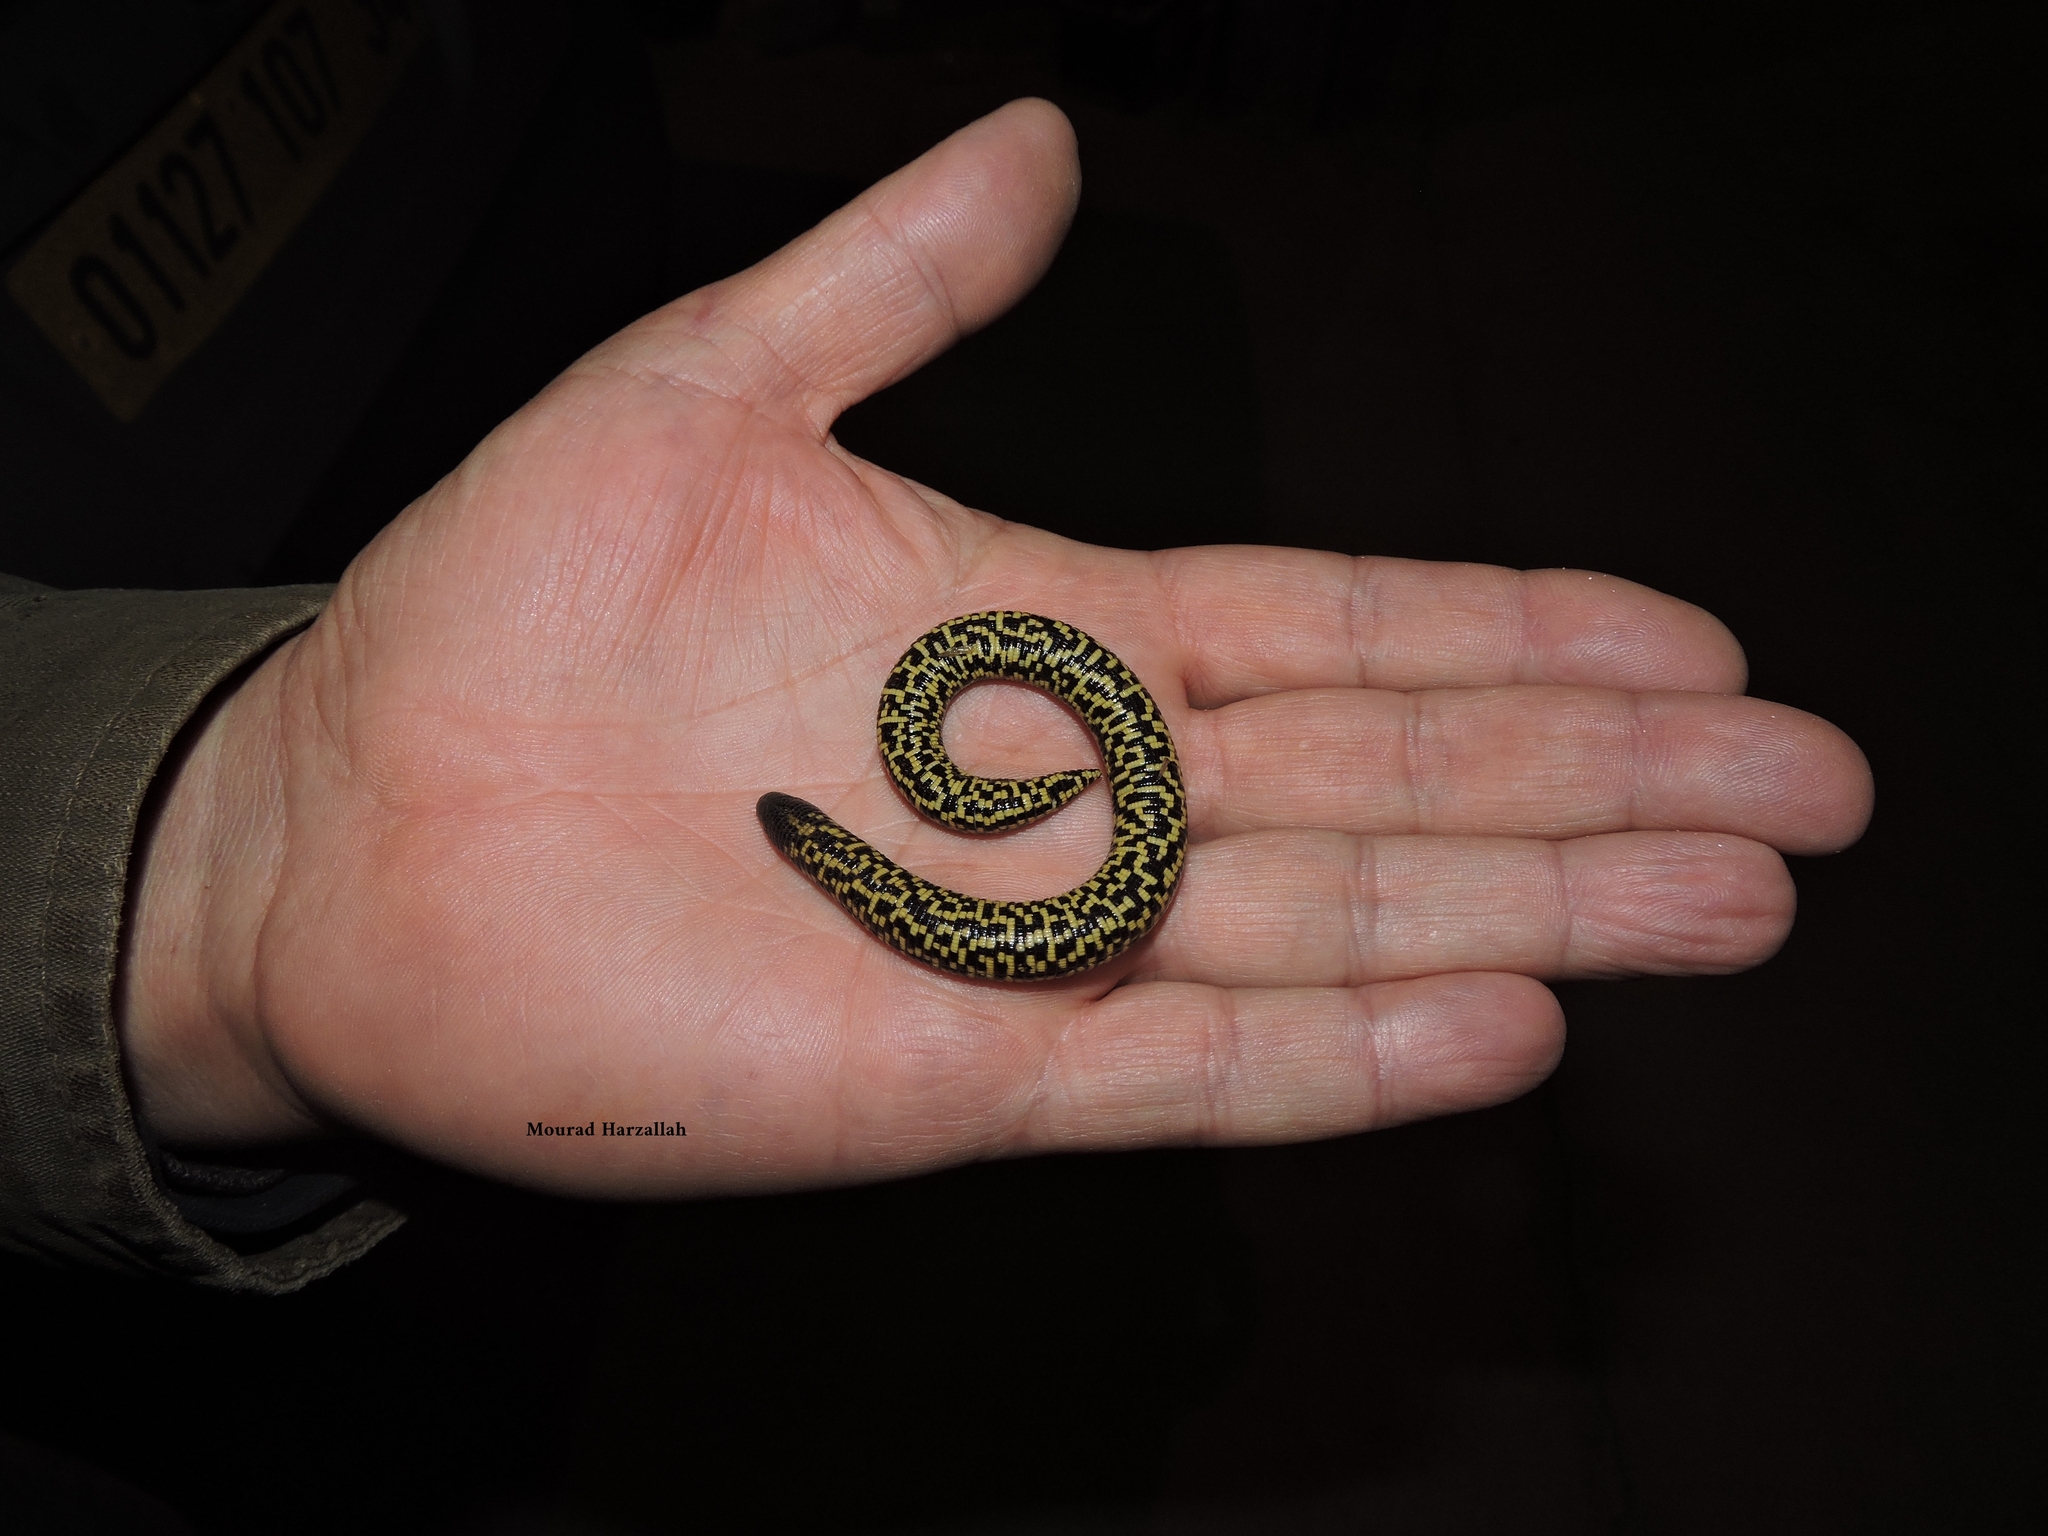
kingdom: Animalia
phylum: Chordata
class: Squamata
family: Trogonophidae
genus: Trogonophis
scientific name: Trogonophis wiegmanni
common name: Checkerboard worm lizard
